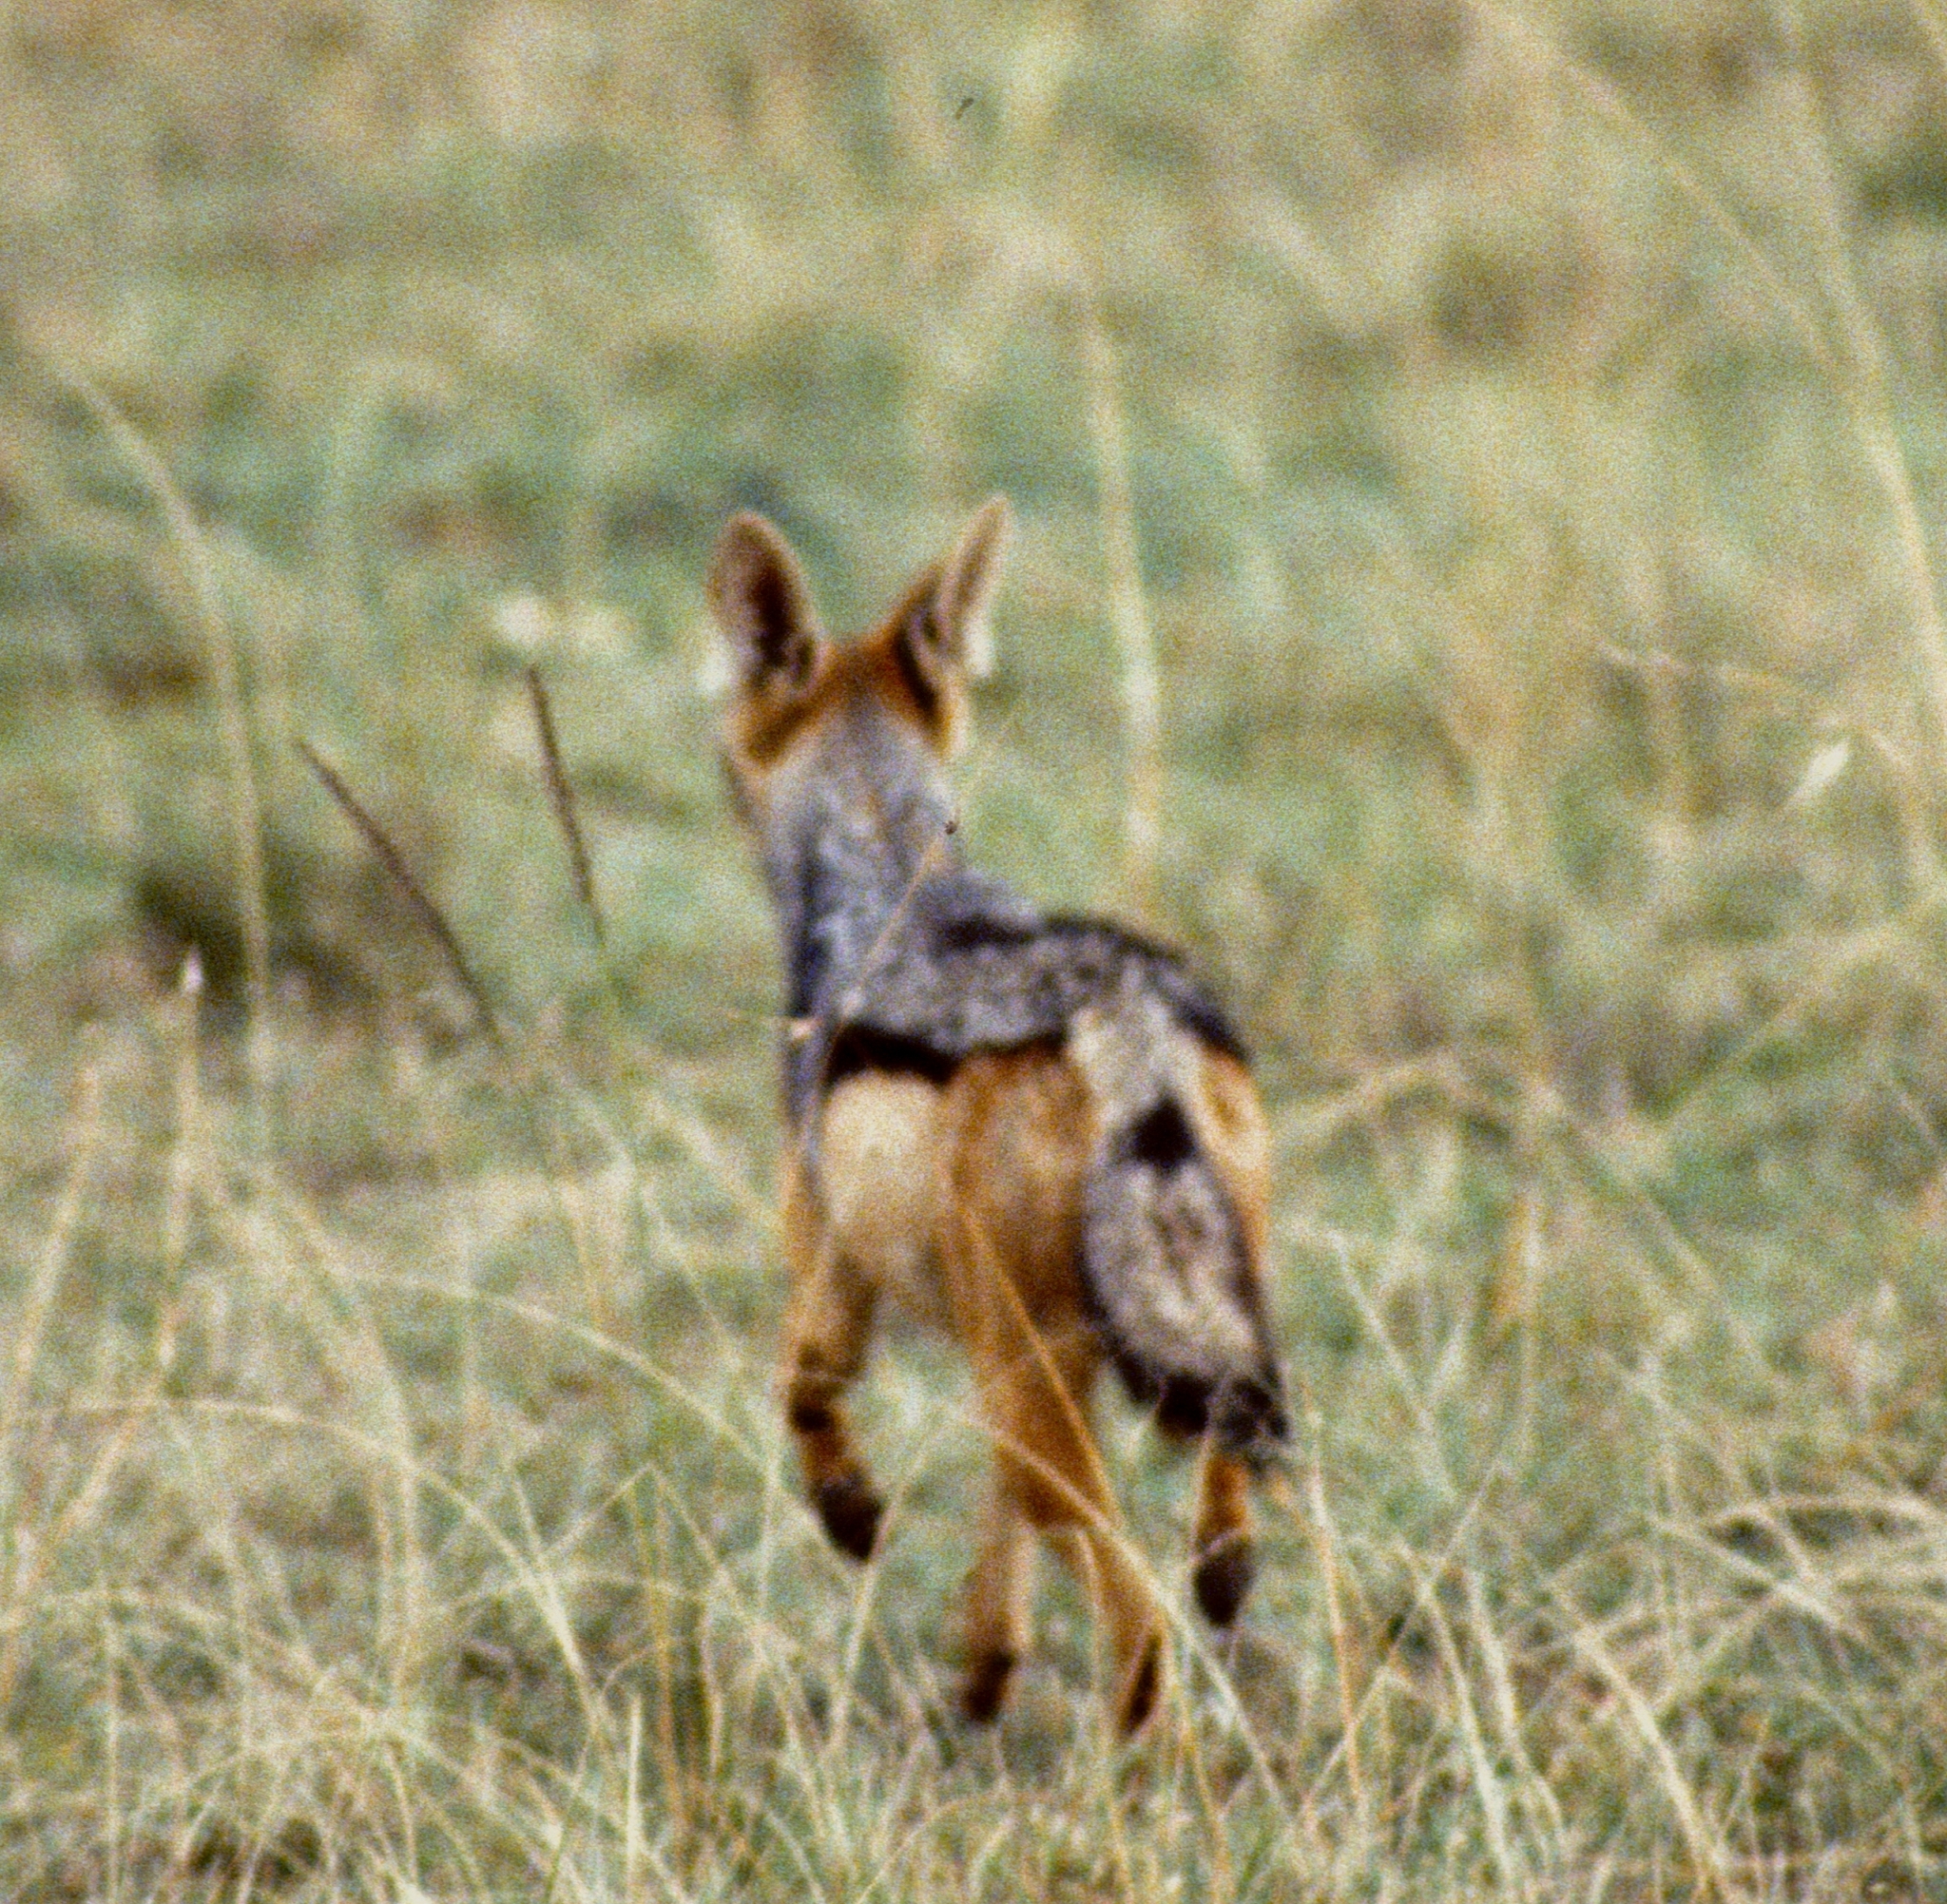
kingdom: Animalia
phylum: Chordata
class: Mammalia
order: Carnivora
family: Canidae
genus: Lupulella
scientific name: Lupulella
